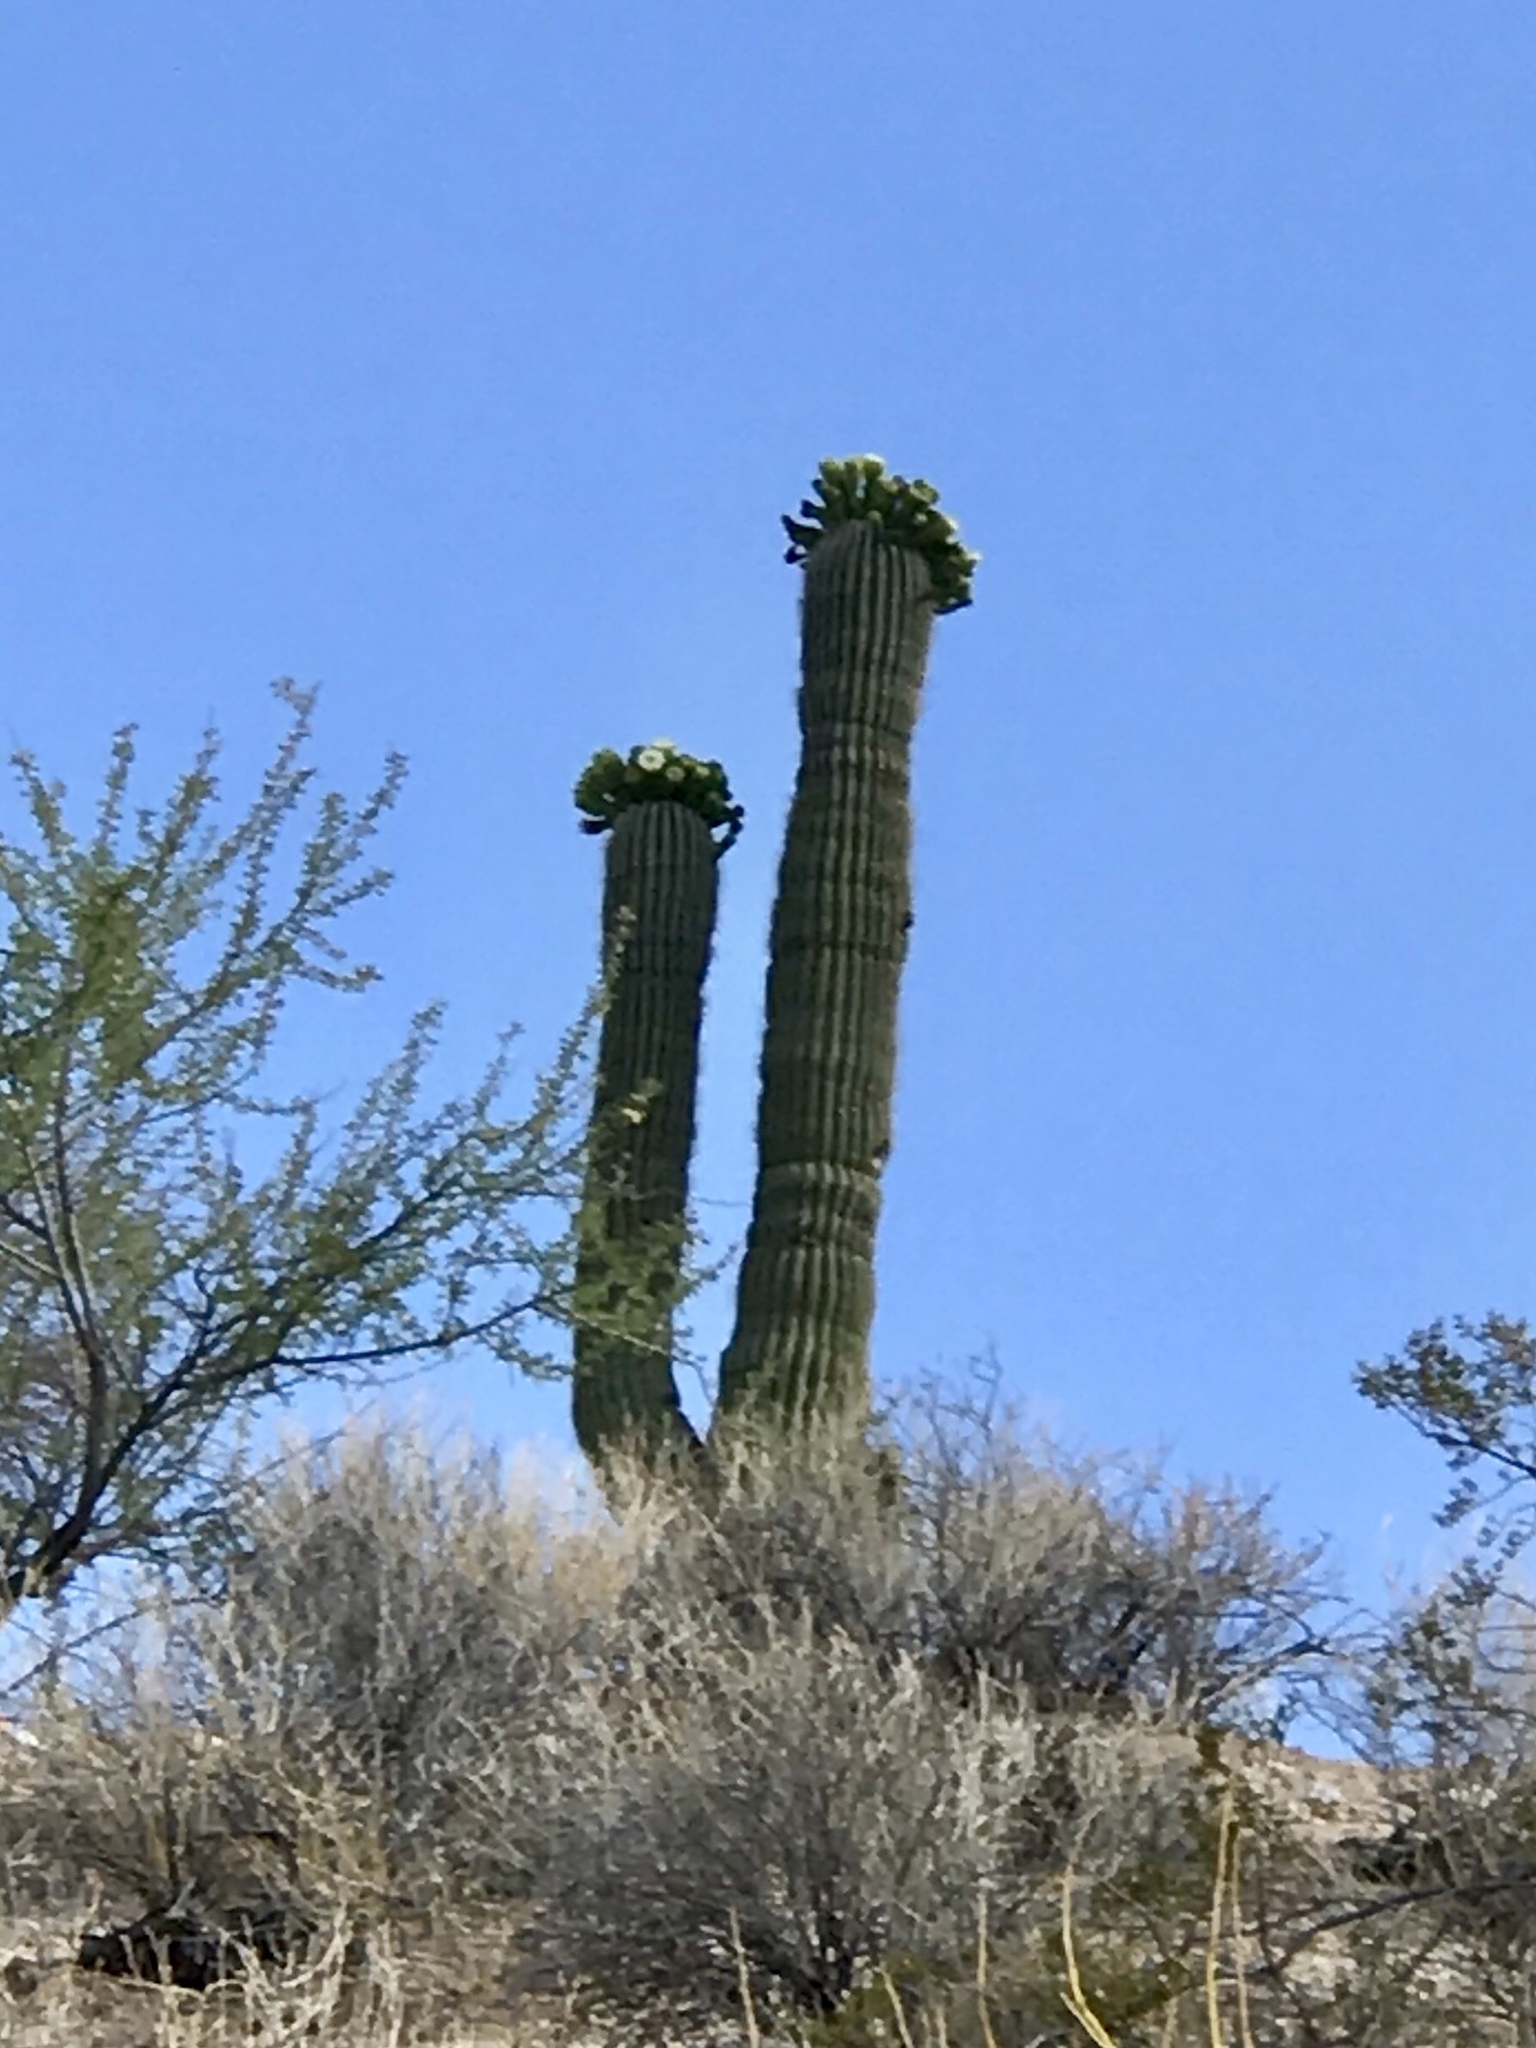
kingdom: Plantae
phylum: Tracheophyta
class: Magnoliopsida
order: Caryophyllales
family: Cactaceae
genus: Carnegiea
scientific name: Carnegiea gigantea
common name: Saguaro
